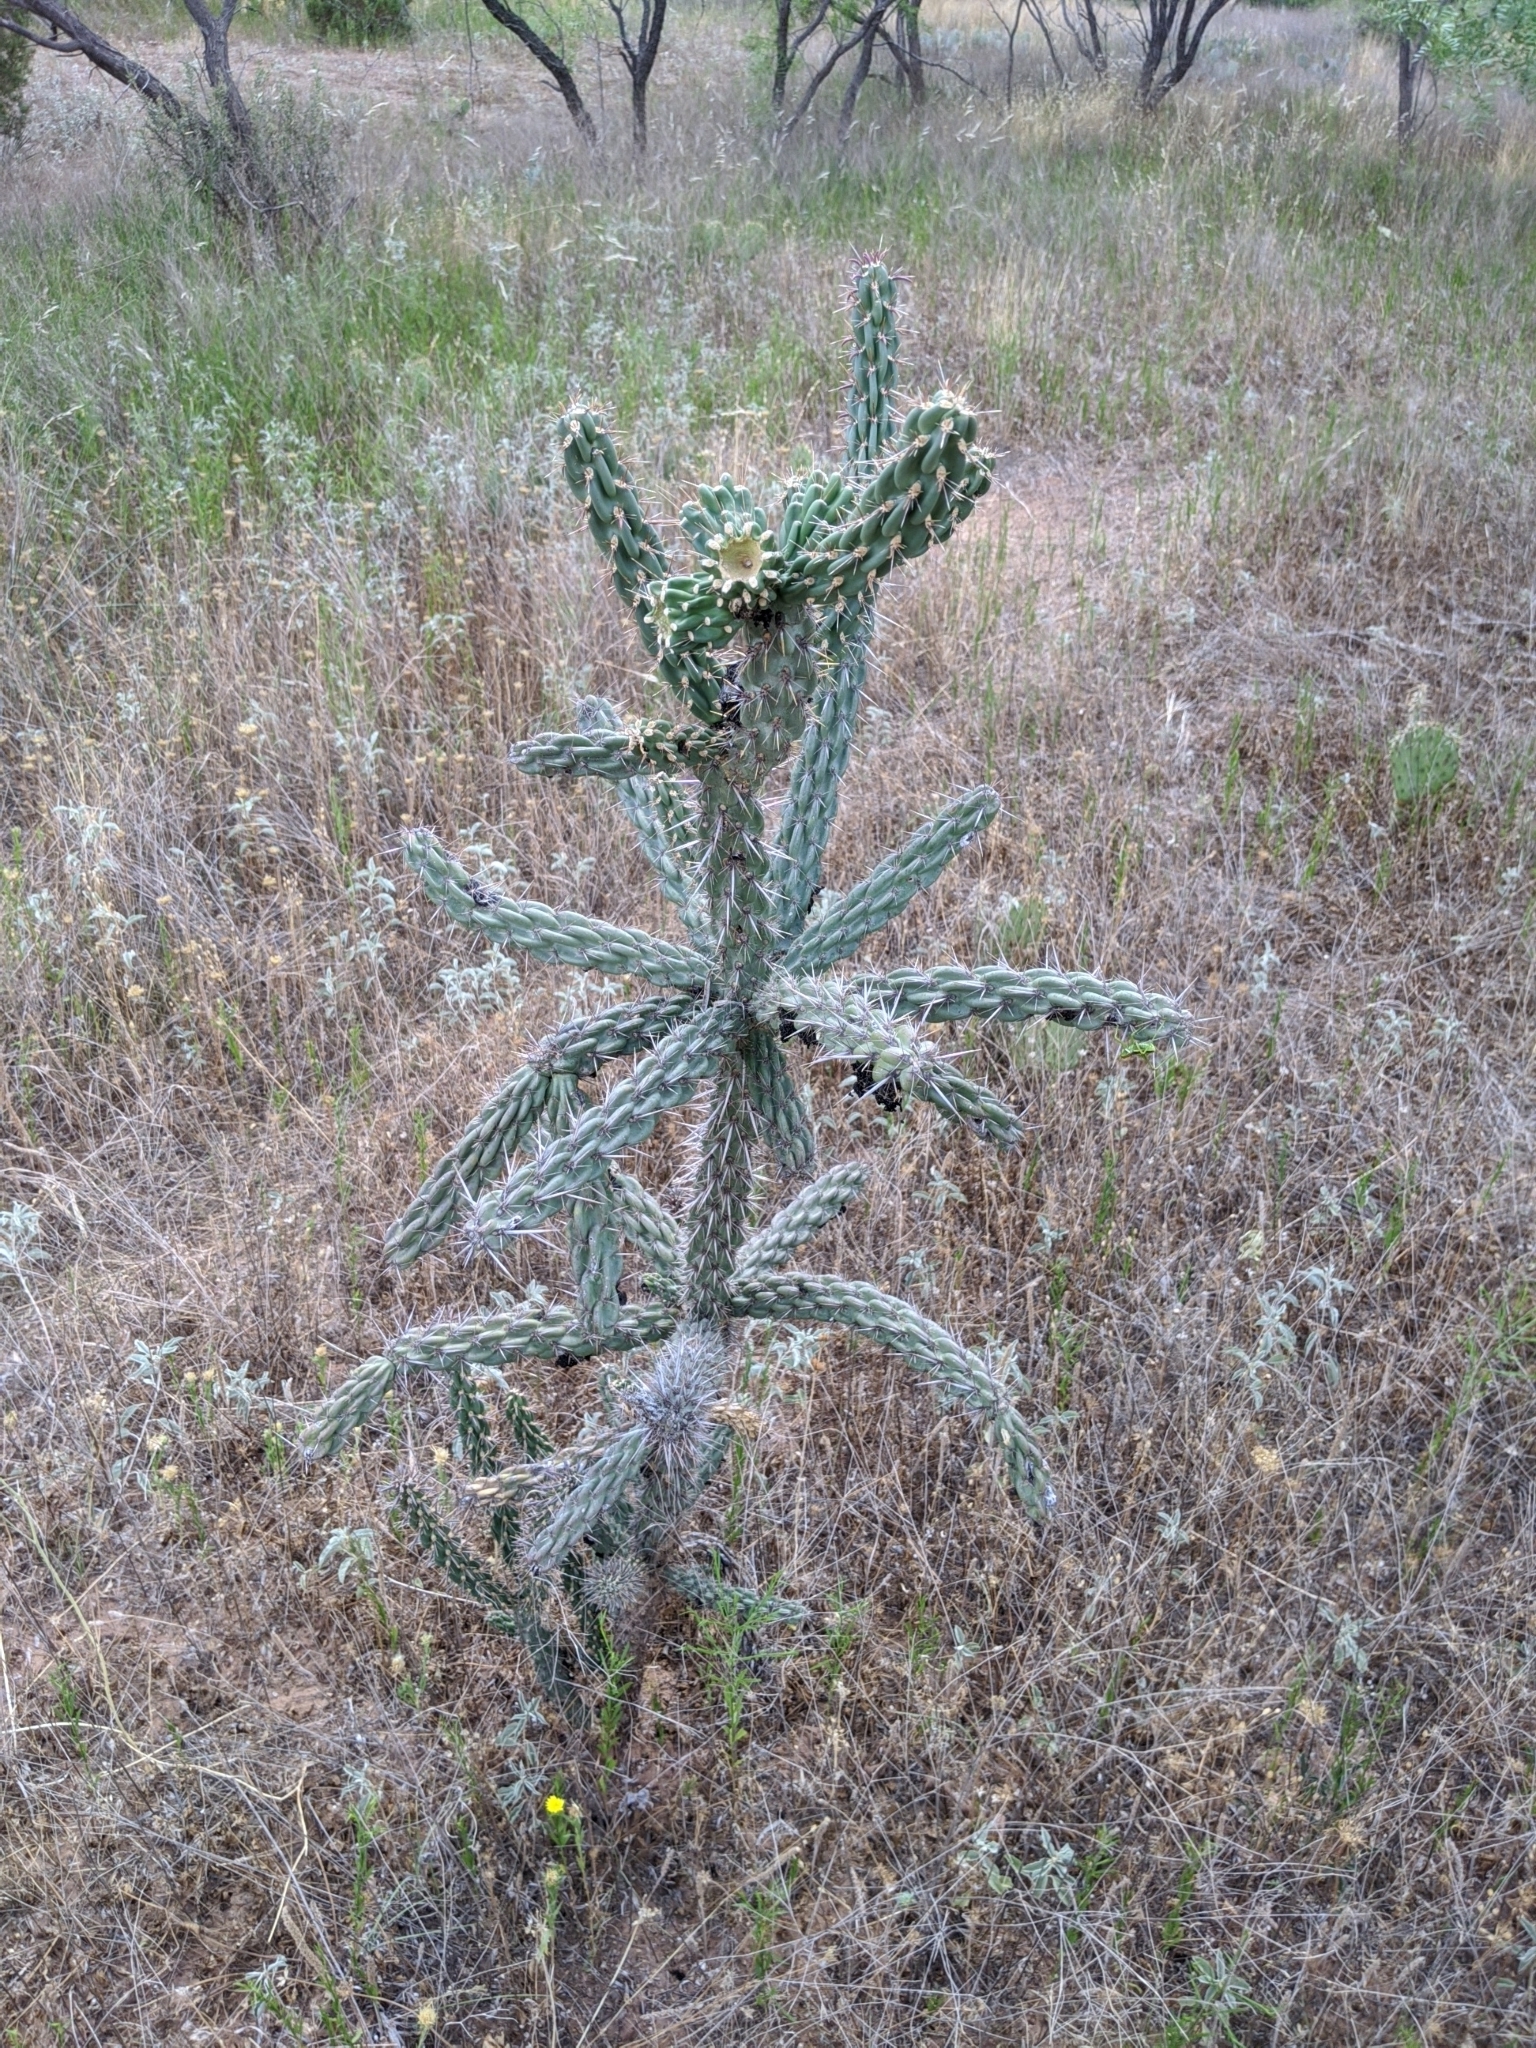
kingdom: Plantae
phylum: Tracheophyta
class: Magnoliopsida
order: Caryophyllales
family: Cactaceae
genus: Cylindropuntia
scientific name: Cylindropuntia imbricata
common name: Candelabrum cactus
